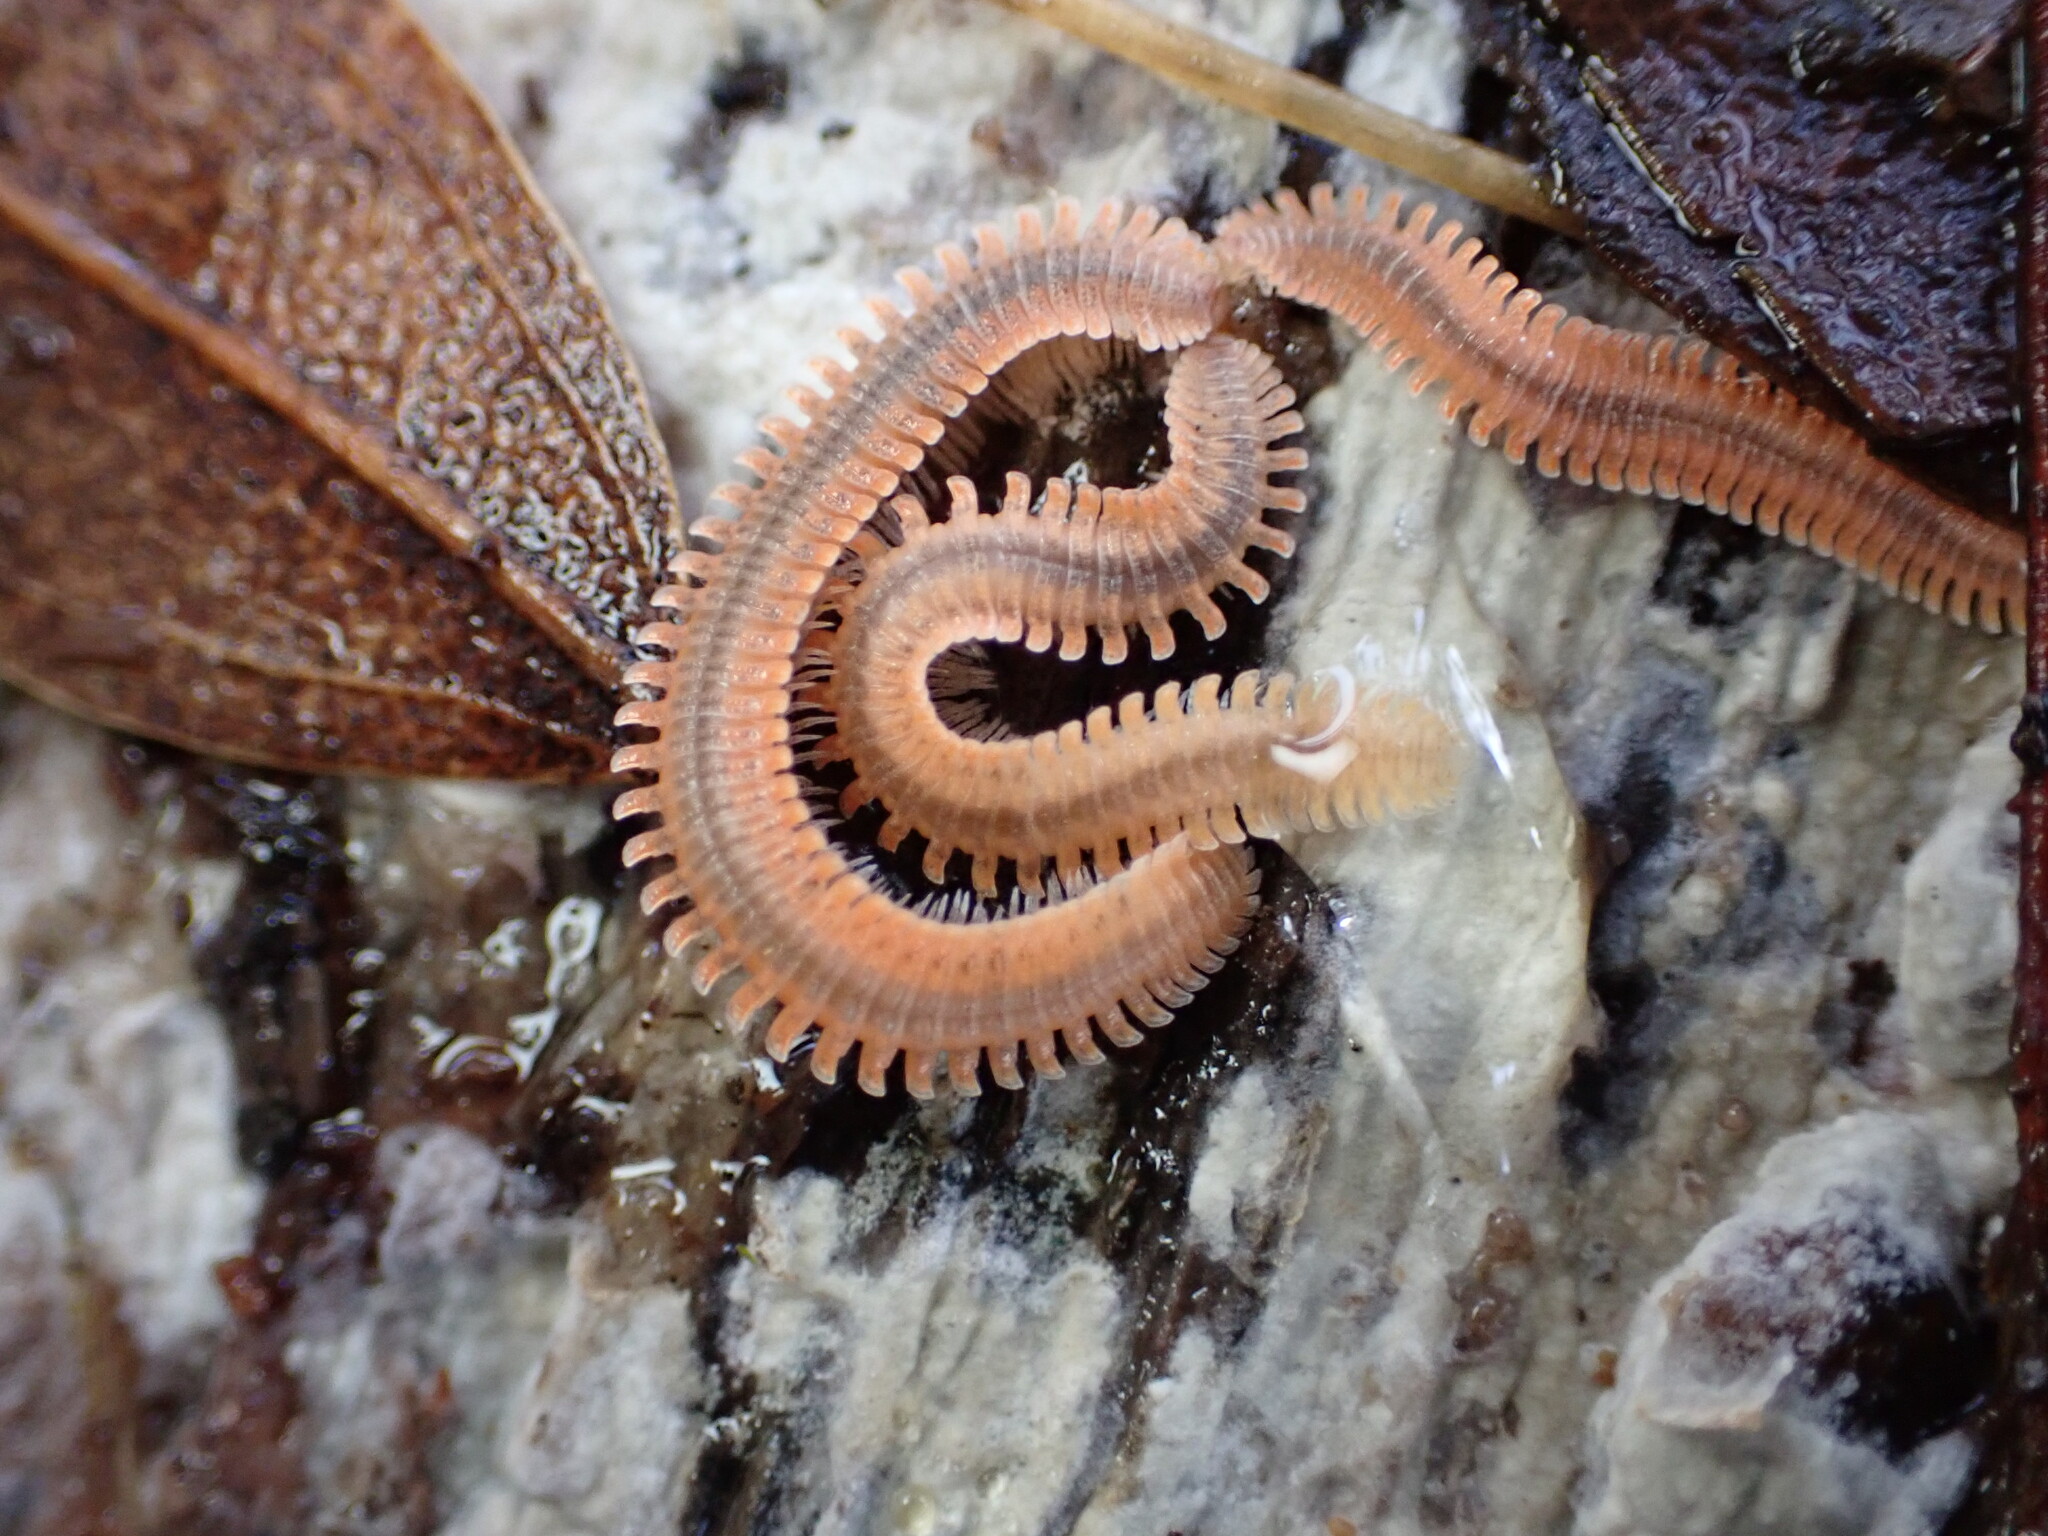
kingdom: Animalia
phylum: Arthropoda
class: Diplopoda
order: Platydesmida
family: Andrognathidae
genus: Brachycybe
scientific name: Brachycybe producta
